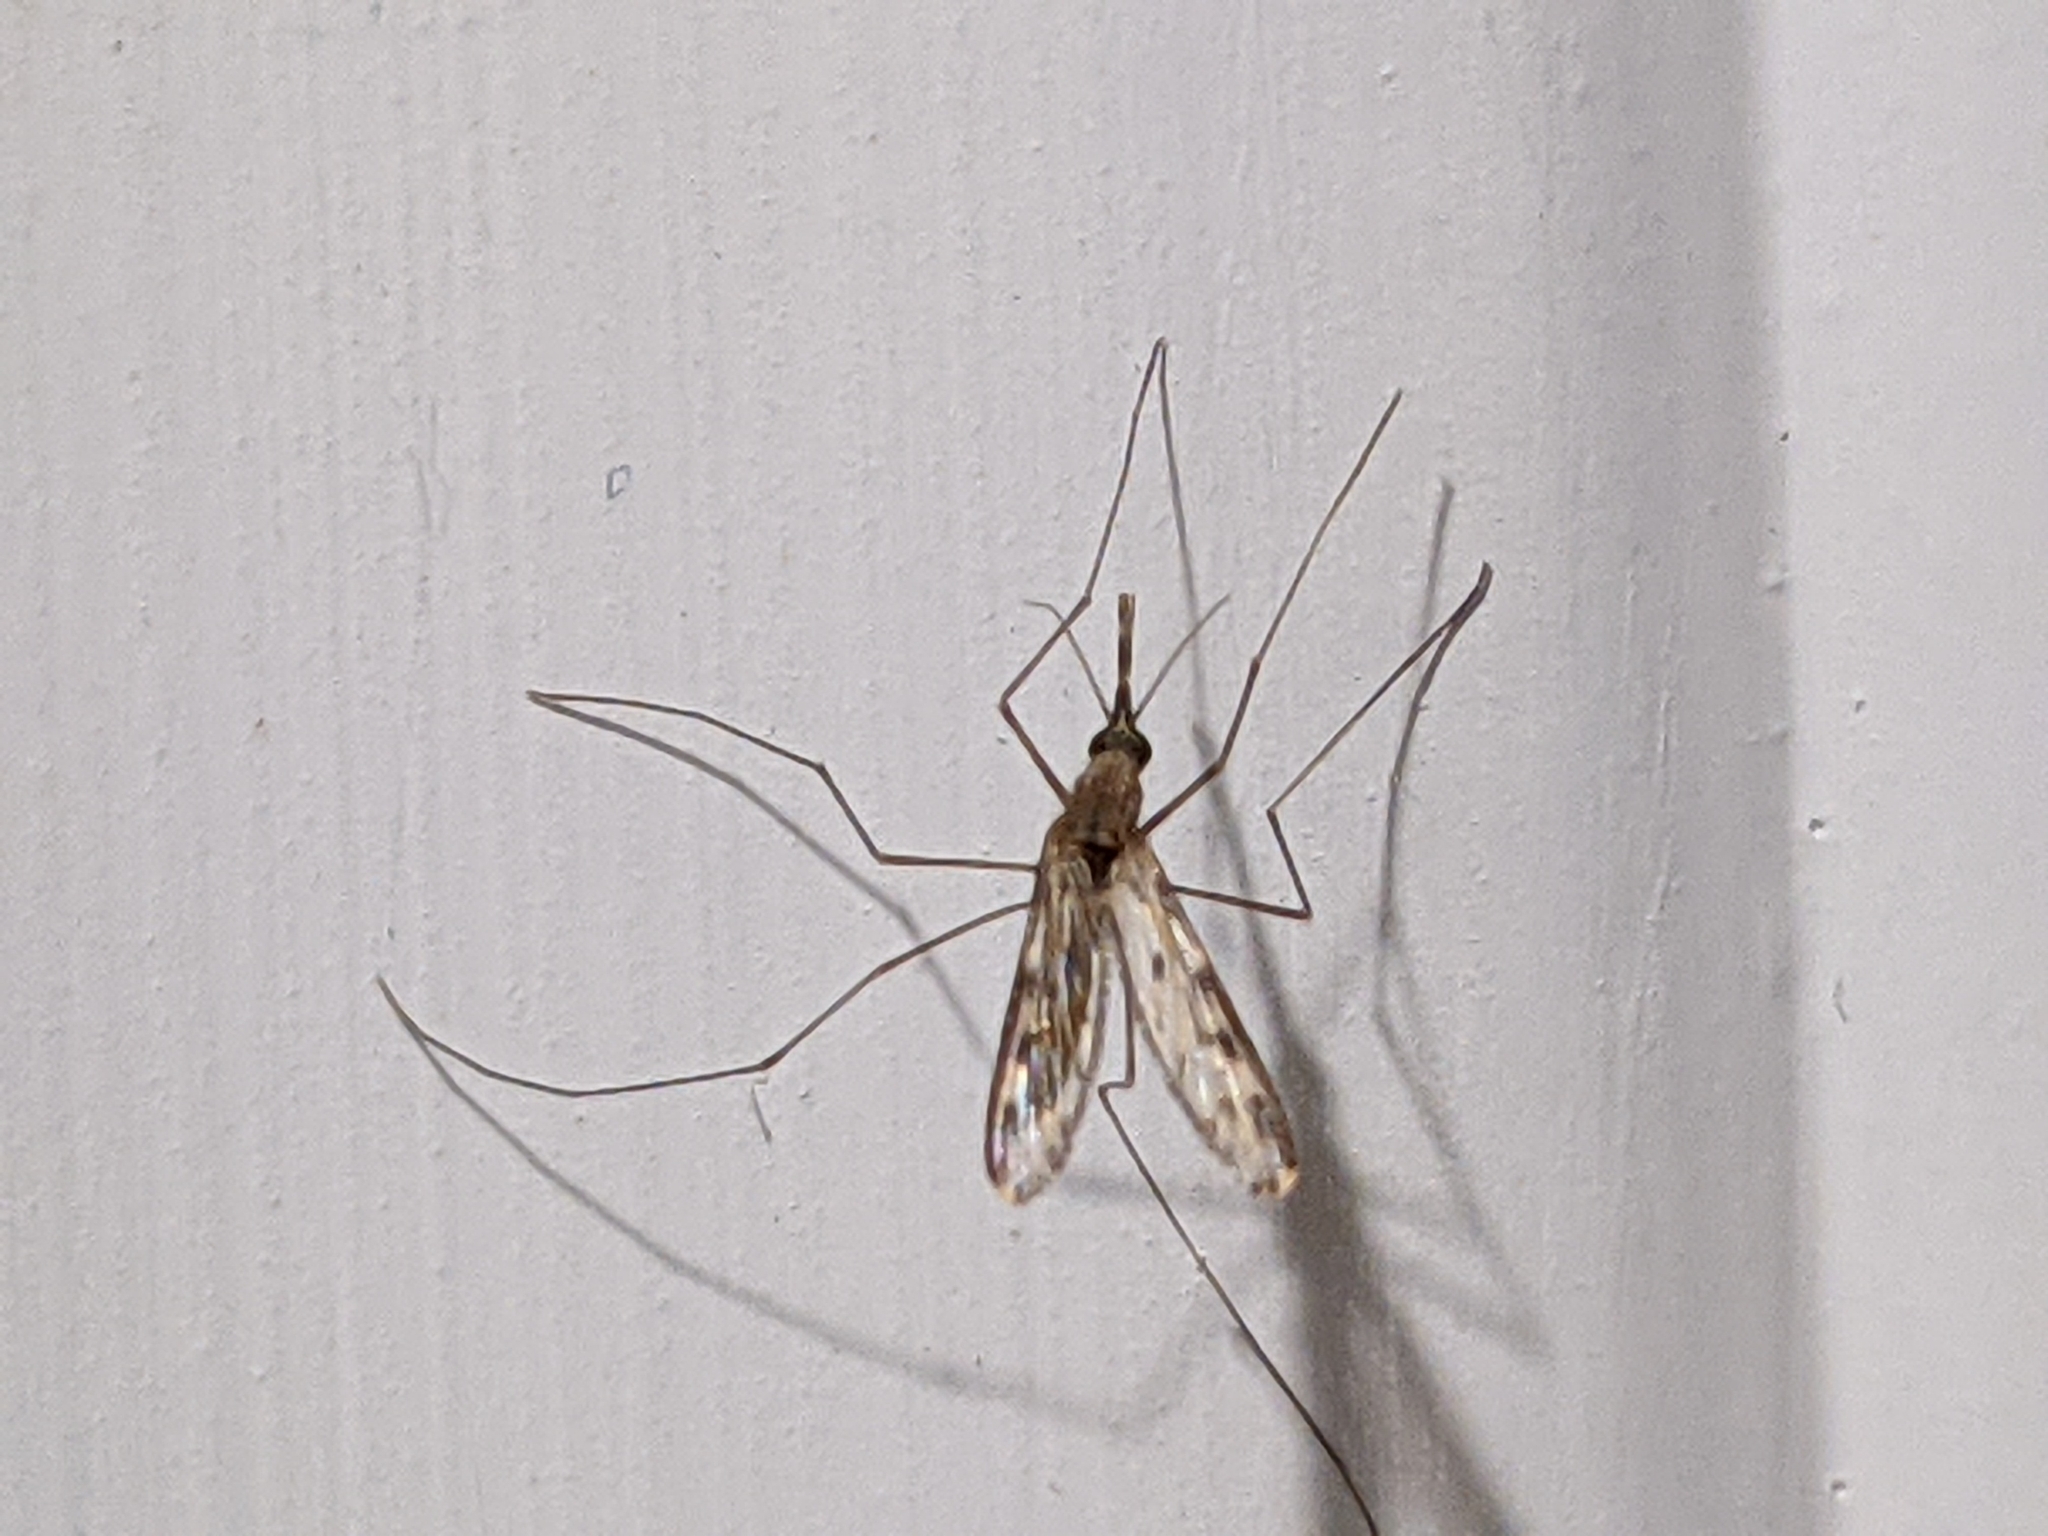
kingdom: Animalia
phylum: Arthropoda
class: Insecta
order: Diptera
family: Culicidae
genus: Anopheles
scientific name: Anopheles
